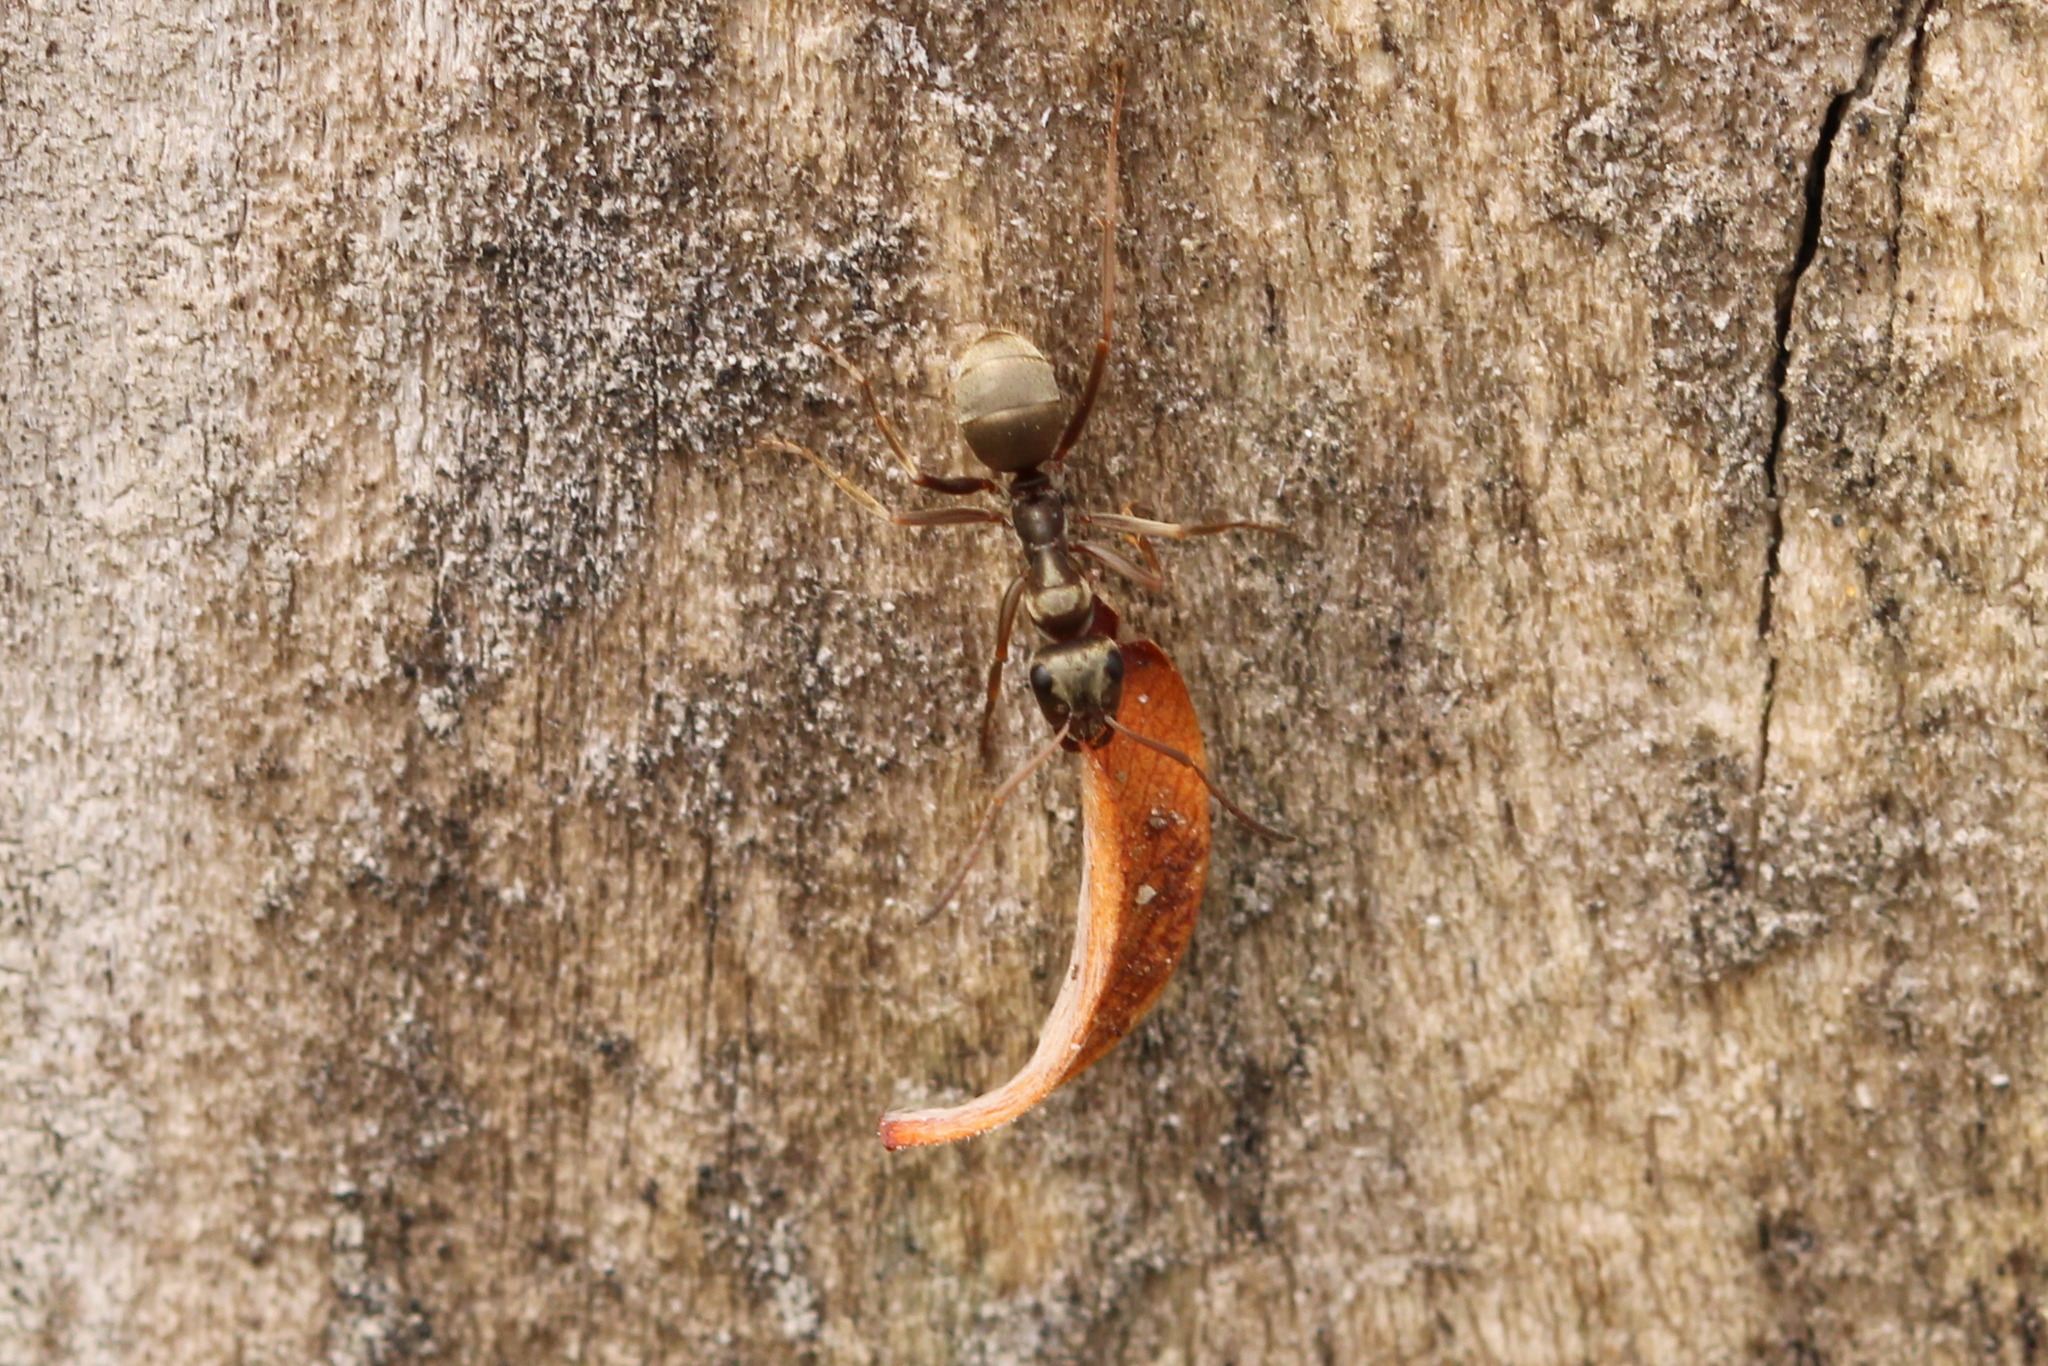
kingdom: Animalia
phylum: Arthropoda
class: Insecta
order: Hymenoptera
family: Formicidae
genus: Formica
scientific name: Formica fuscocinerea
